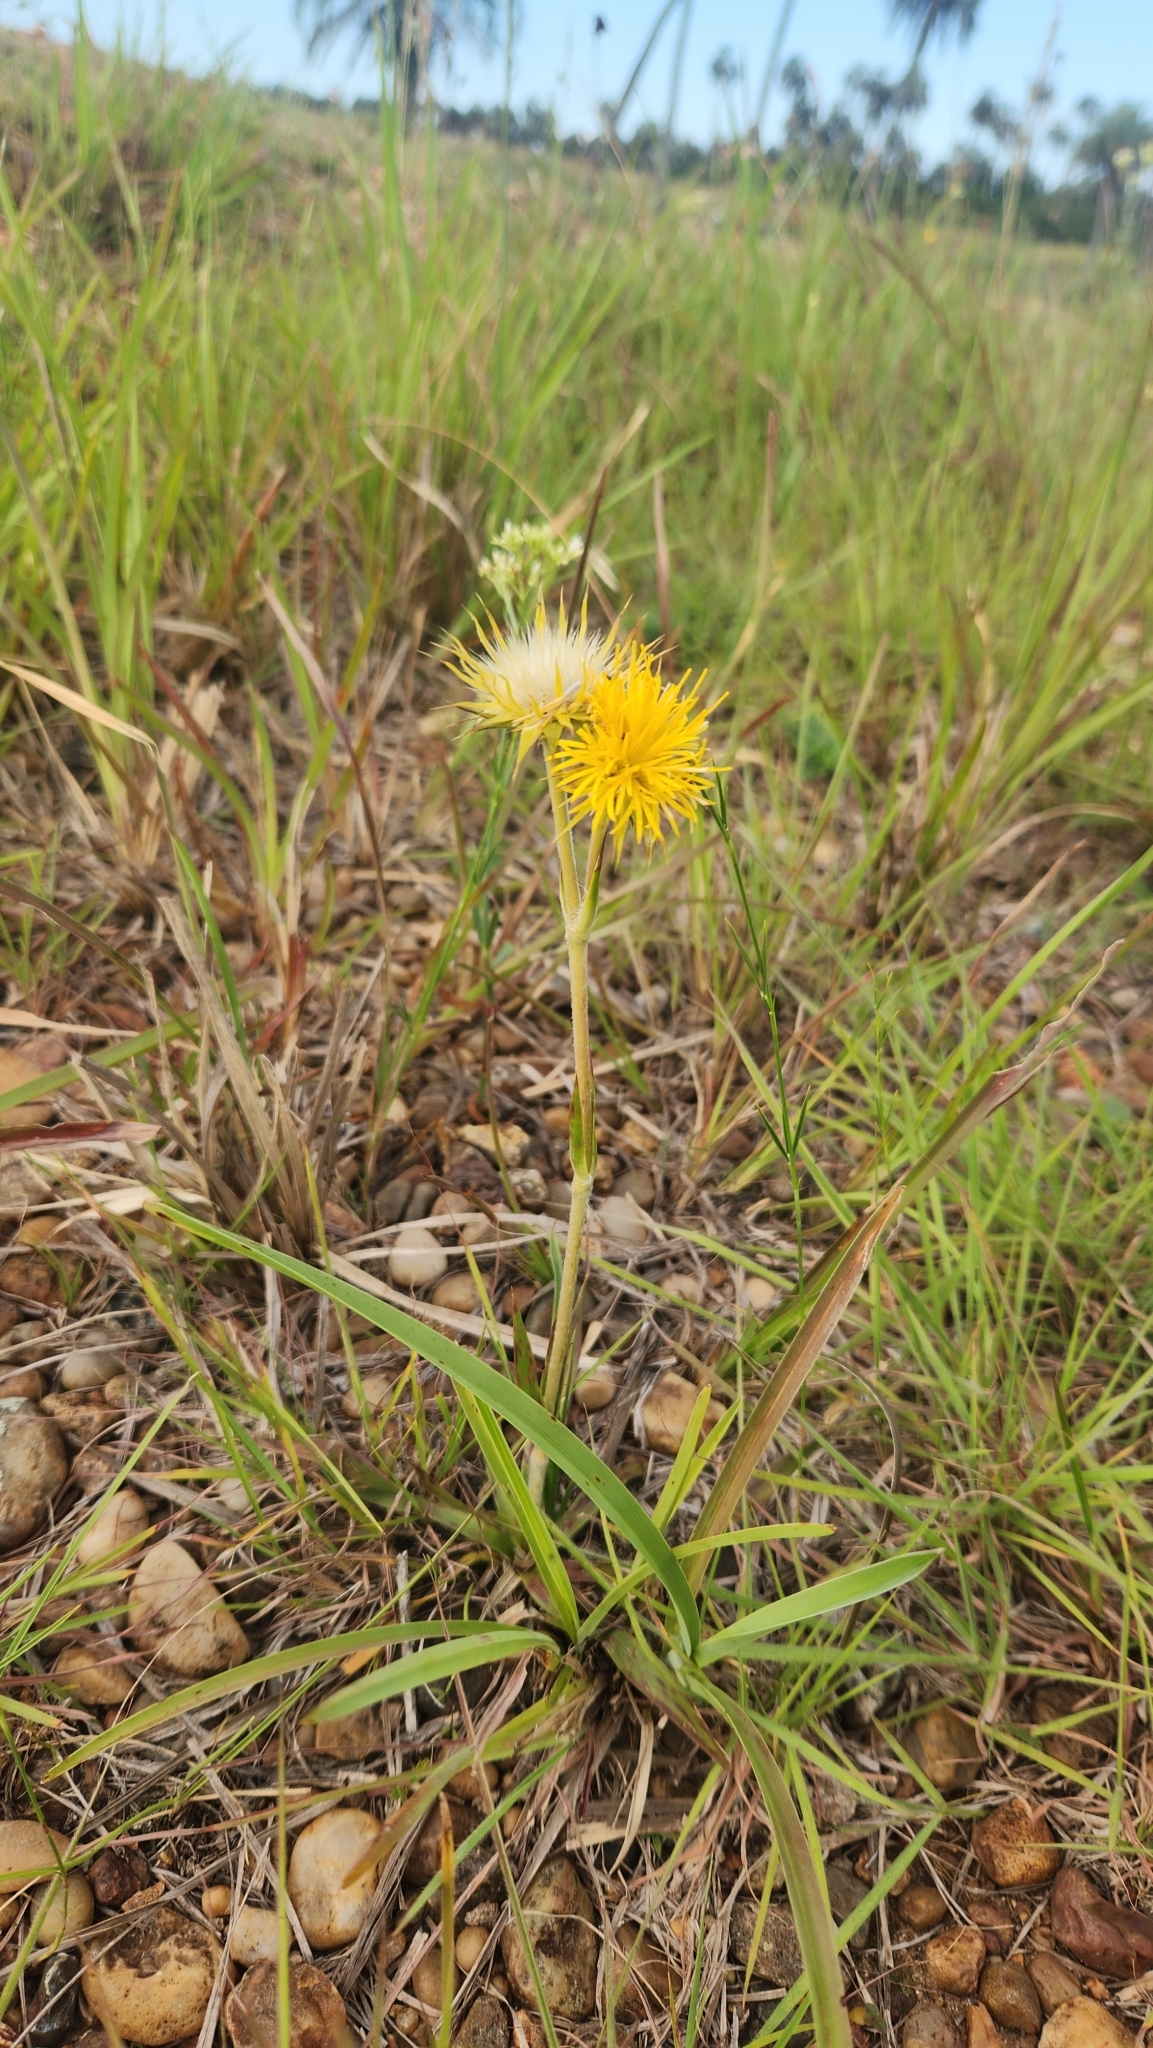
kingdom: Plantae
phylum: Tracheophyta
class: Magnoliopsida
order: Asterales
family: Asteraceae
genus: Schlechtendalia
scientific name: Schlechtendalia luzulifolia
